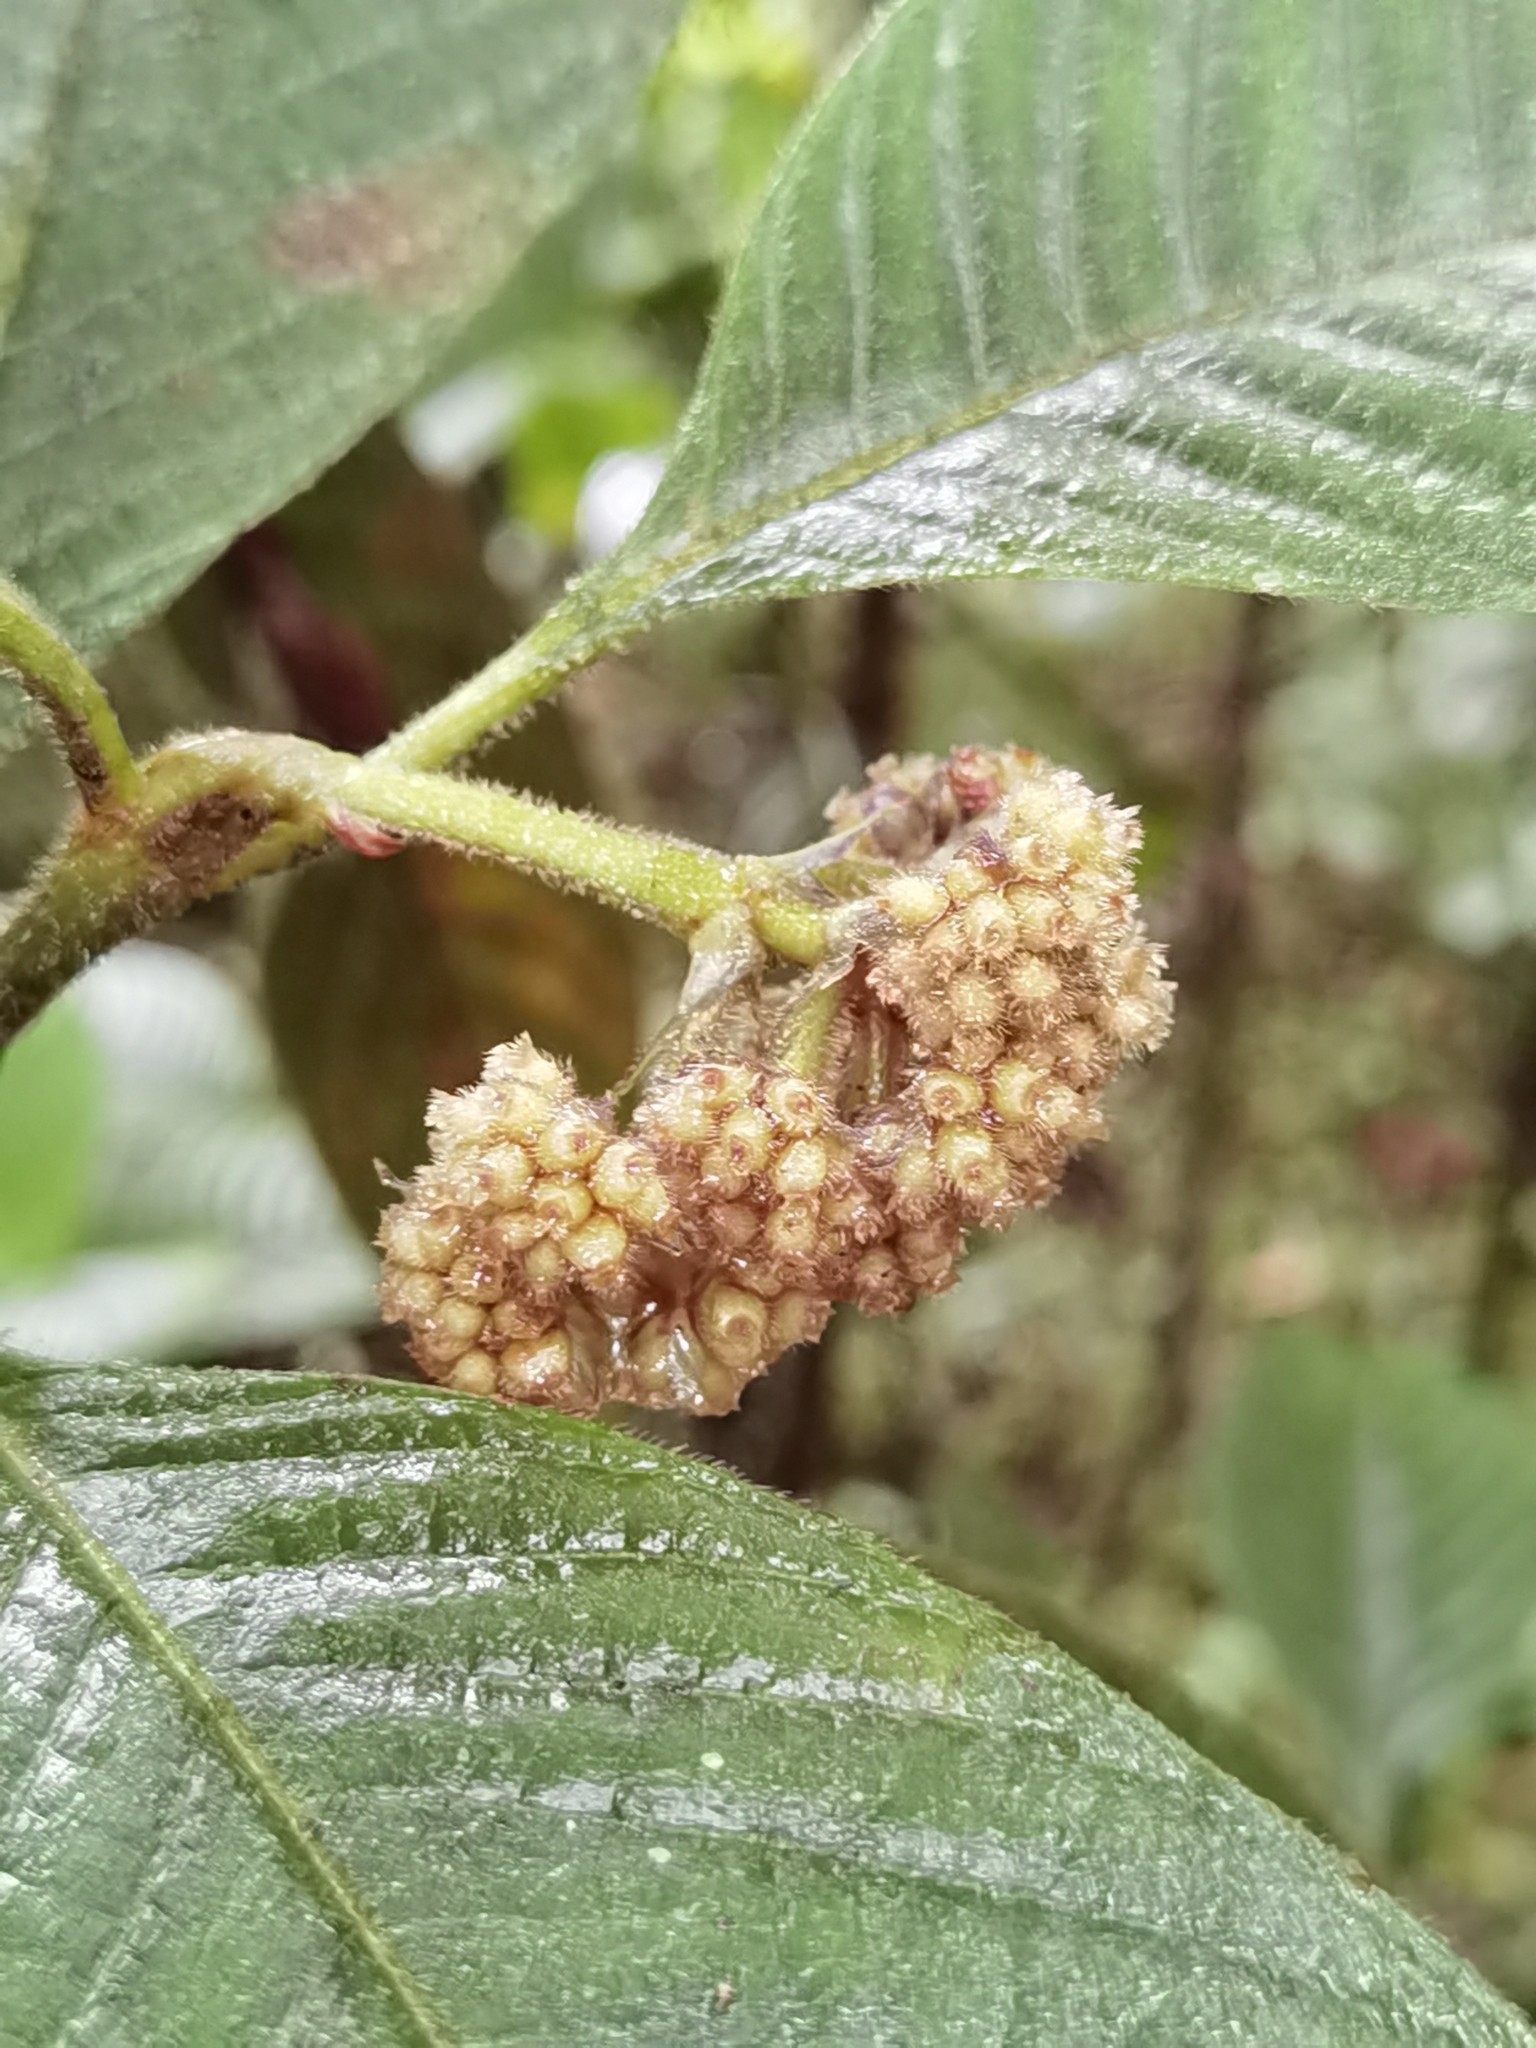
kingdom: Plantae
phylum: Tracheophyta
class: Magnoliopsida
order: Gentianales
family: Rubiaceae
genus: Palicourea
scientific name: Palicourea pilosa
